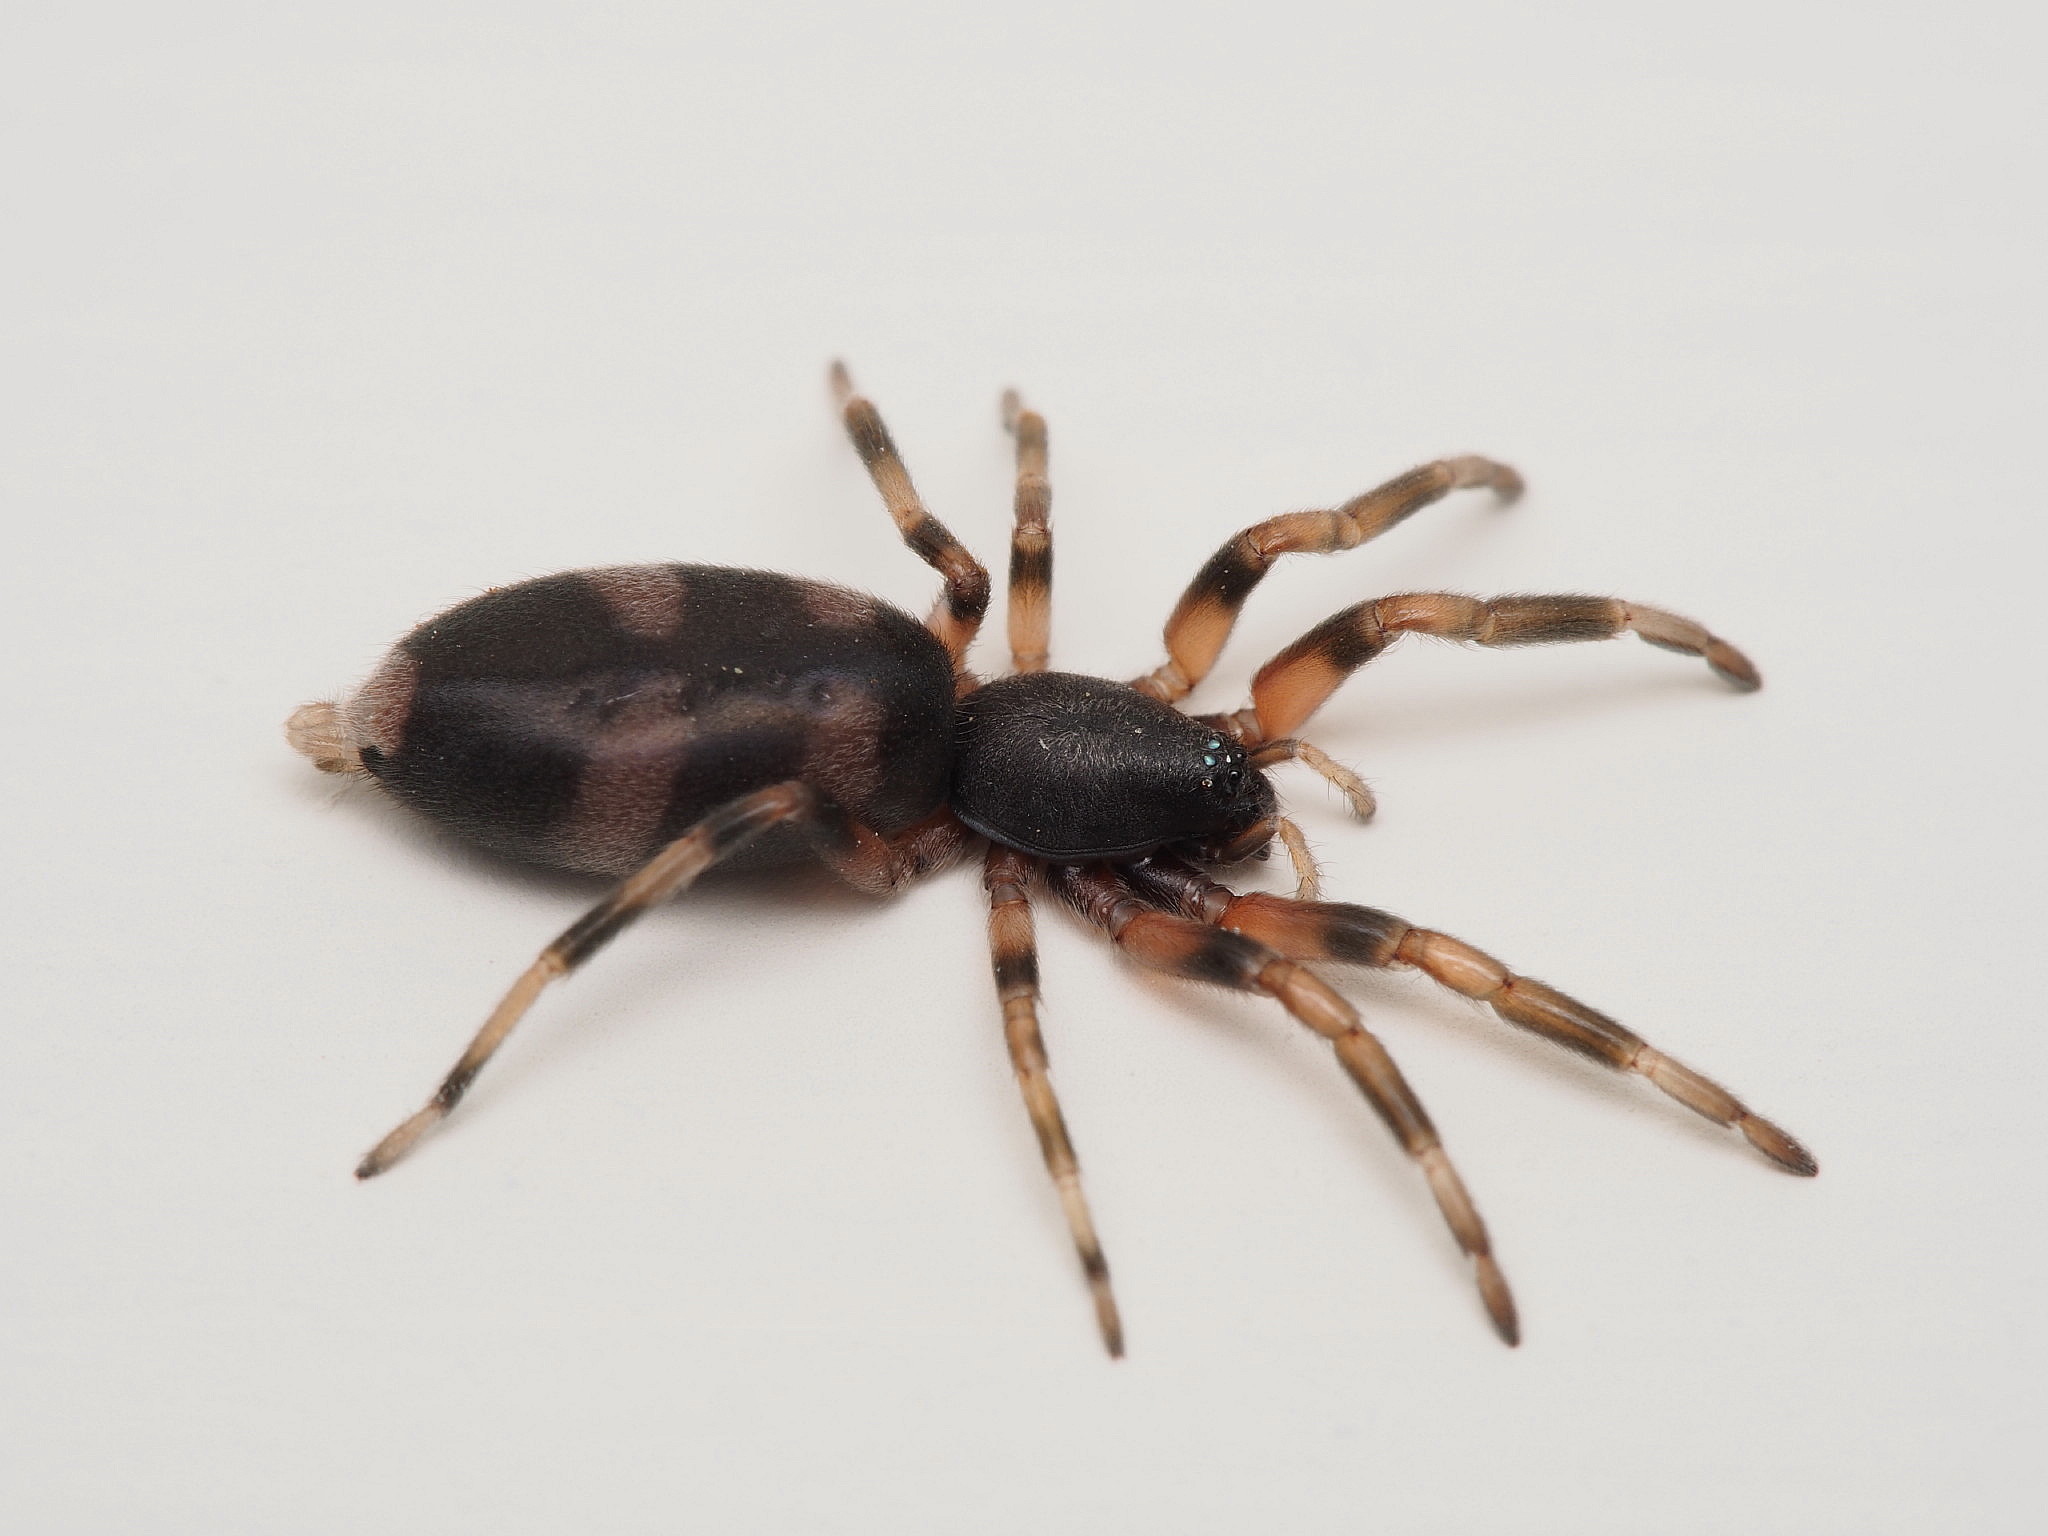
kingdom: Animalia
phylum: Arthropoda
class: Arachnida
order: Araneae
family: Lamponidae
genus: Lampona
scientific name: Lampona murina
